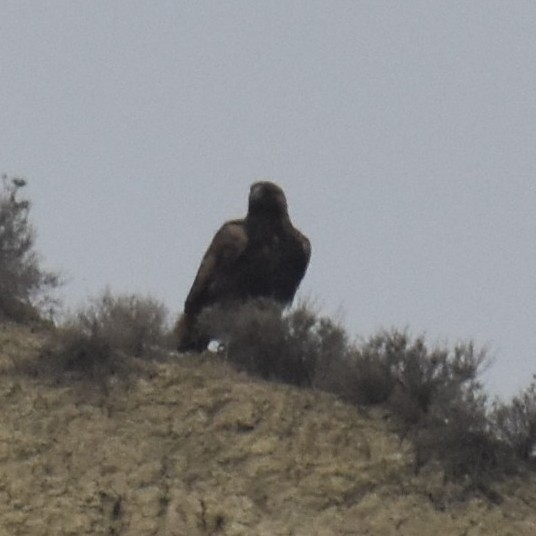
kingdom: Animalia
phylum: Chordata
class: Aves
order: Accipitriformes
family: Accipitridae
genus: Aquila
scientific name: Aquila chrysaetos
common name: Golden eagle
